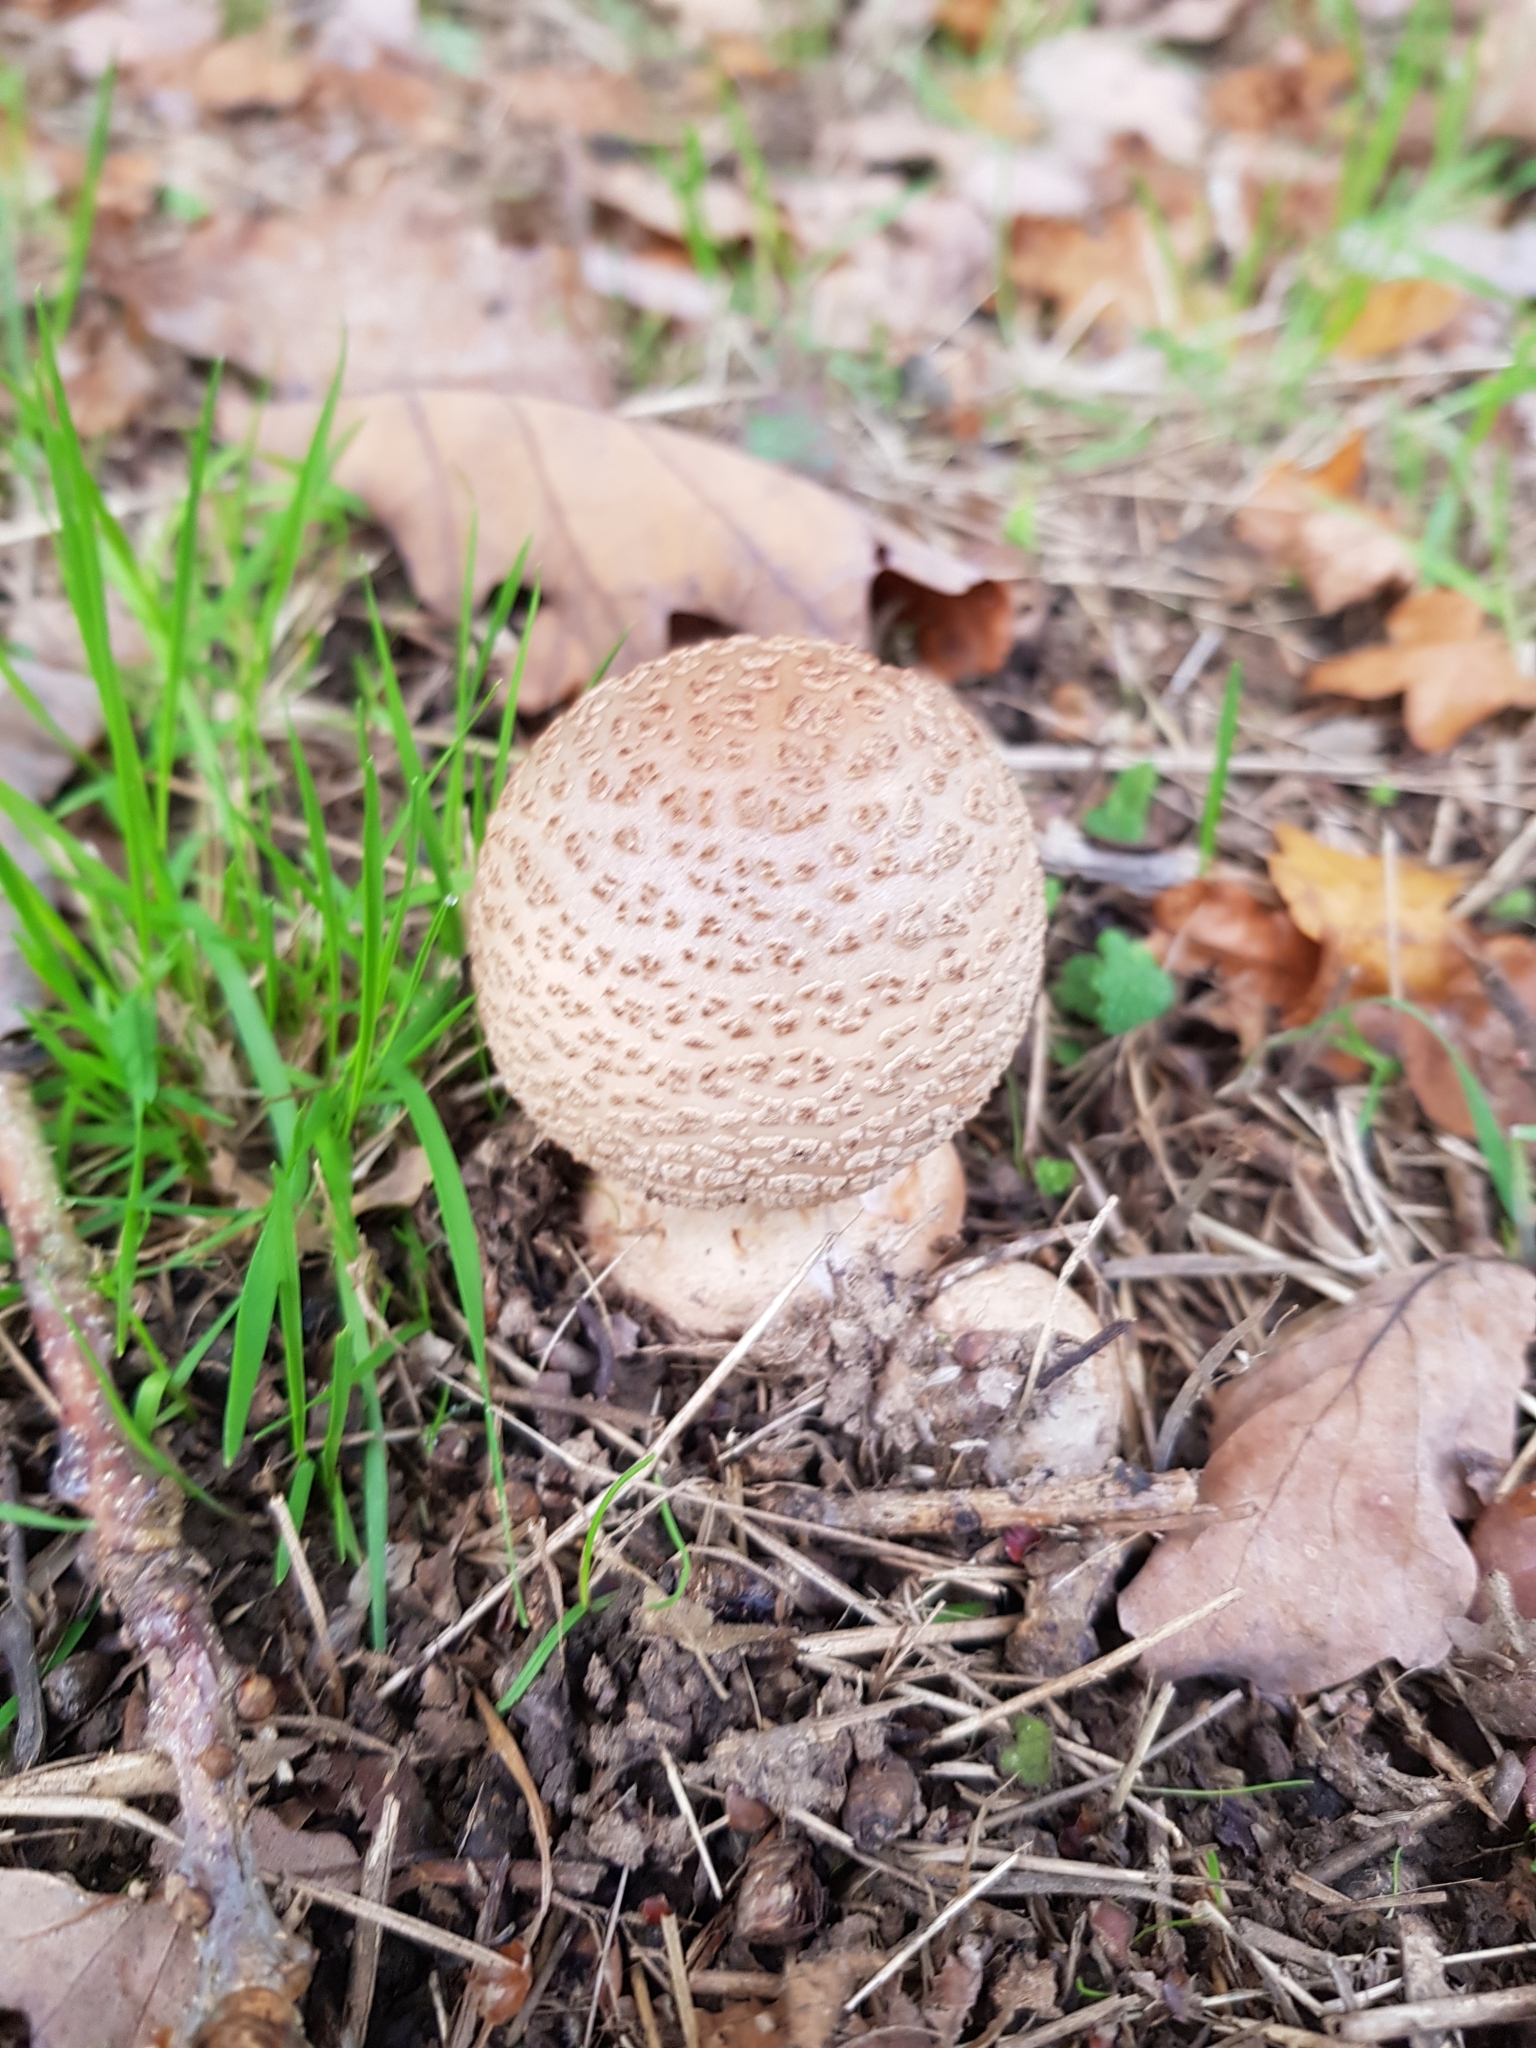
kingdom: Fungi
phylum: Basidiomycota
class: Agaricomycetes
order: Agaricales
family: Amanitaceae
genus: Amanita
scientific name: Amanita rubescens
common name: Blusher
